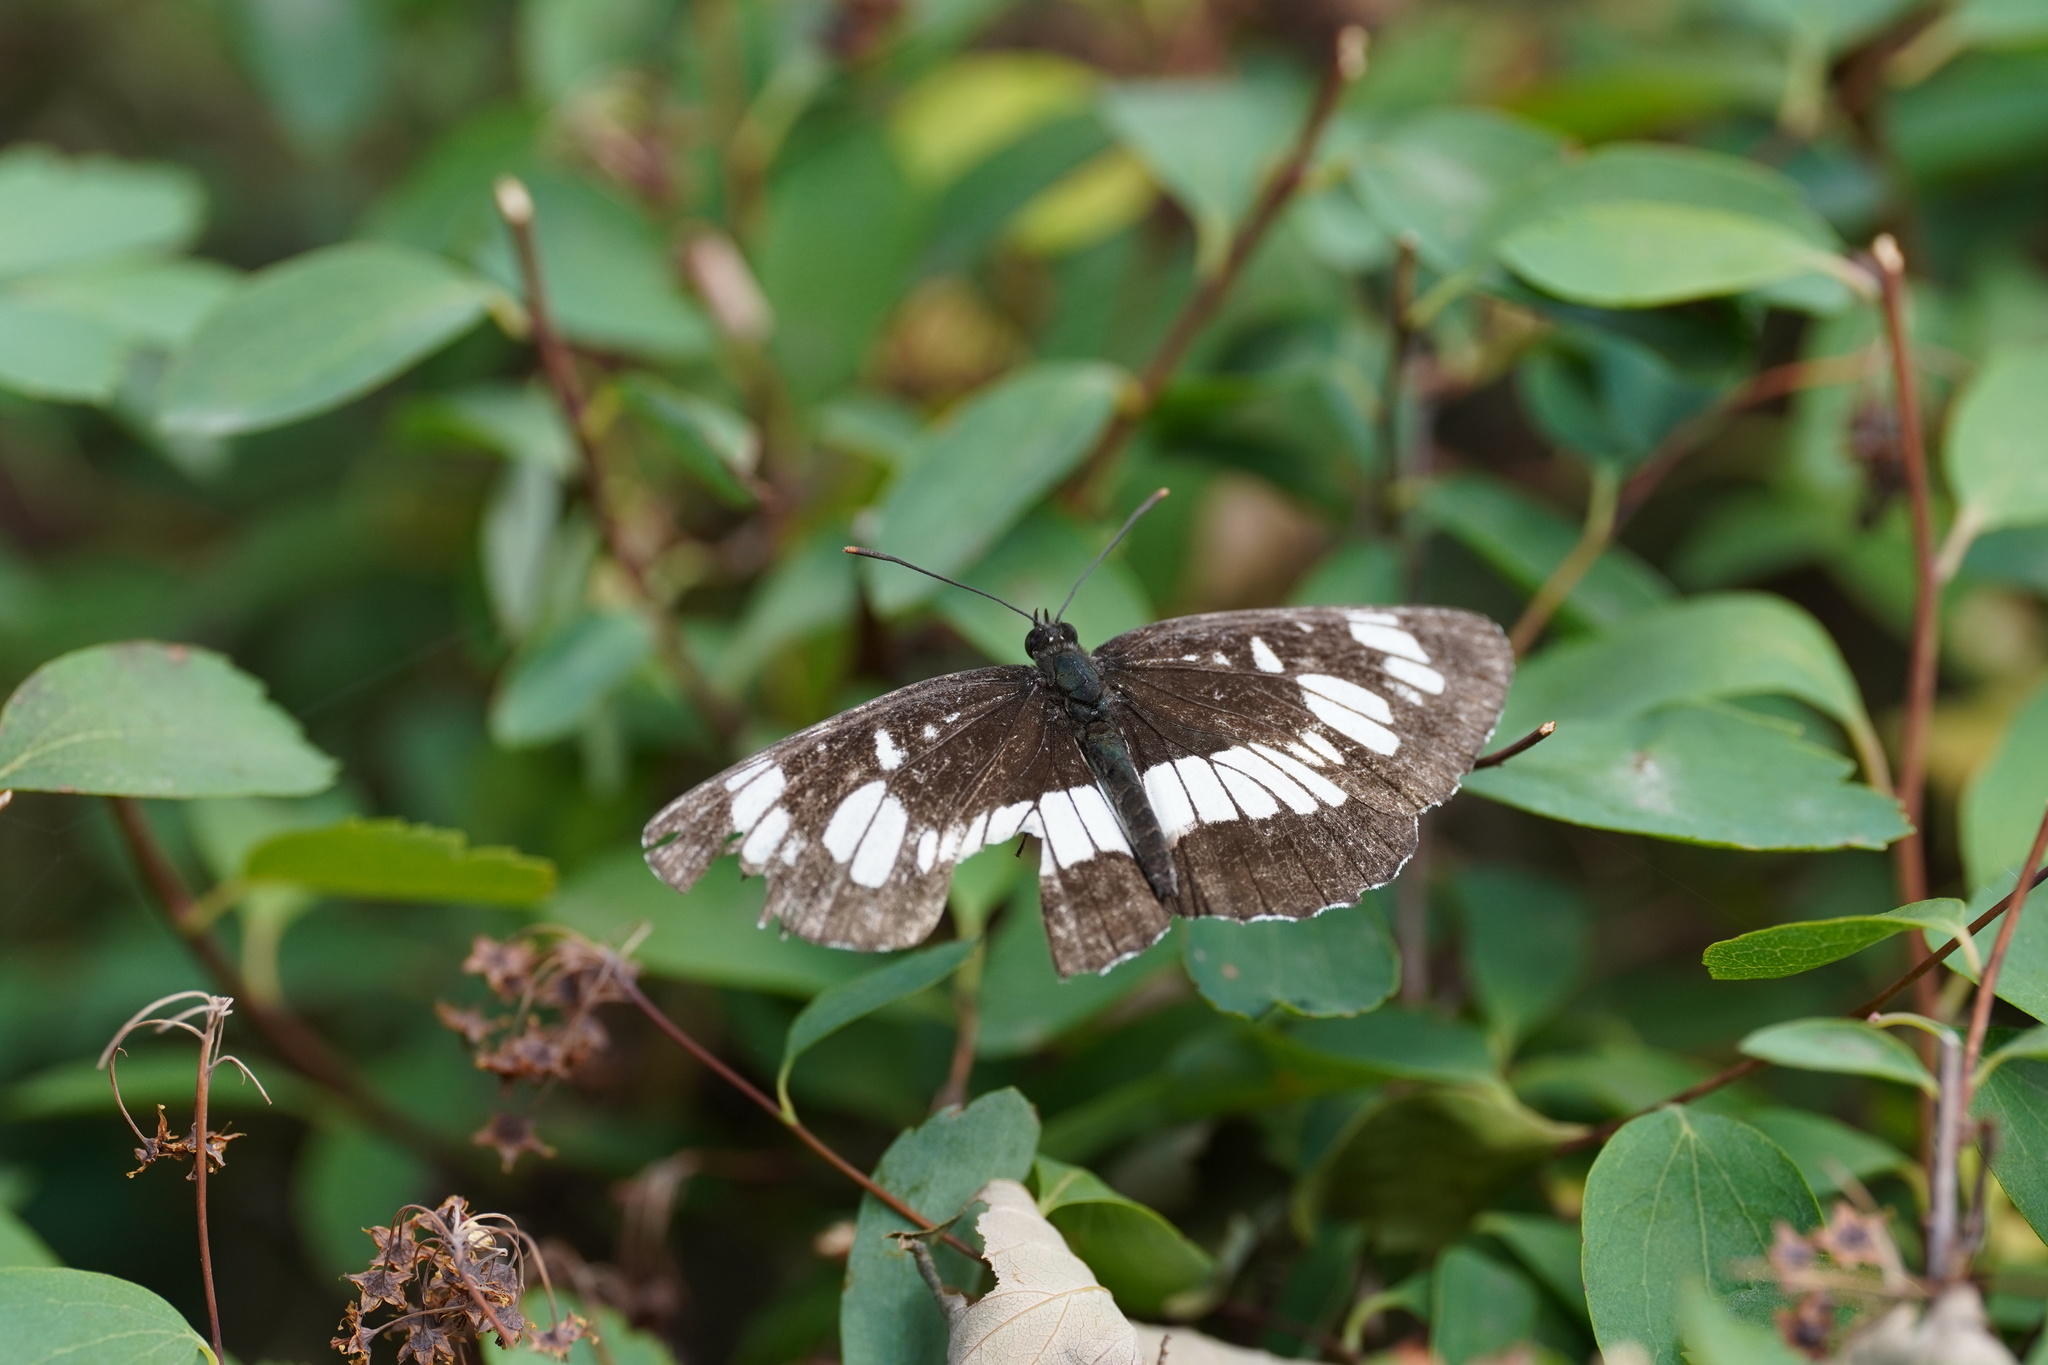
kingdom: Animalia
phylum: Arthropoda
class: Insecta
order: Lepidoptera
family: Nymphalidae
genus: Neptis
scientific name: Neptis rivularis
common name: Hungarian glider
